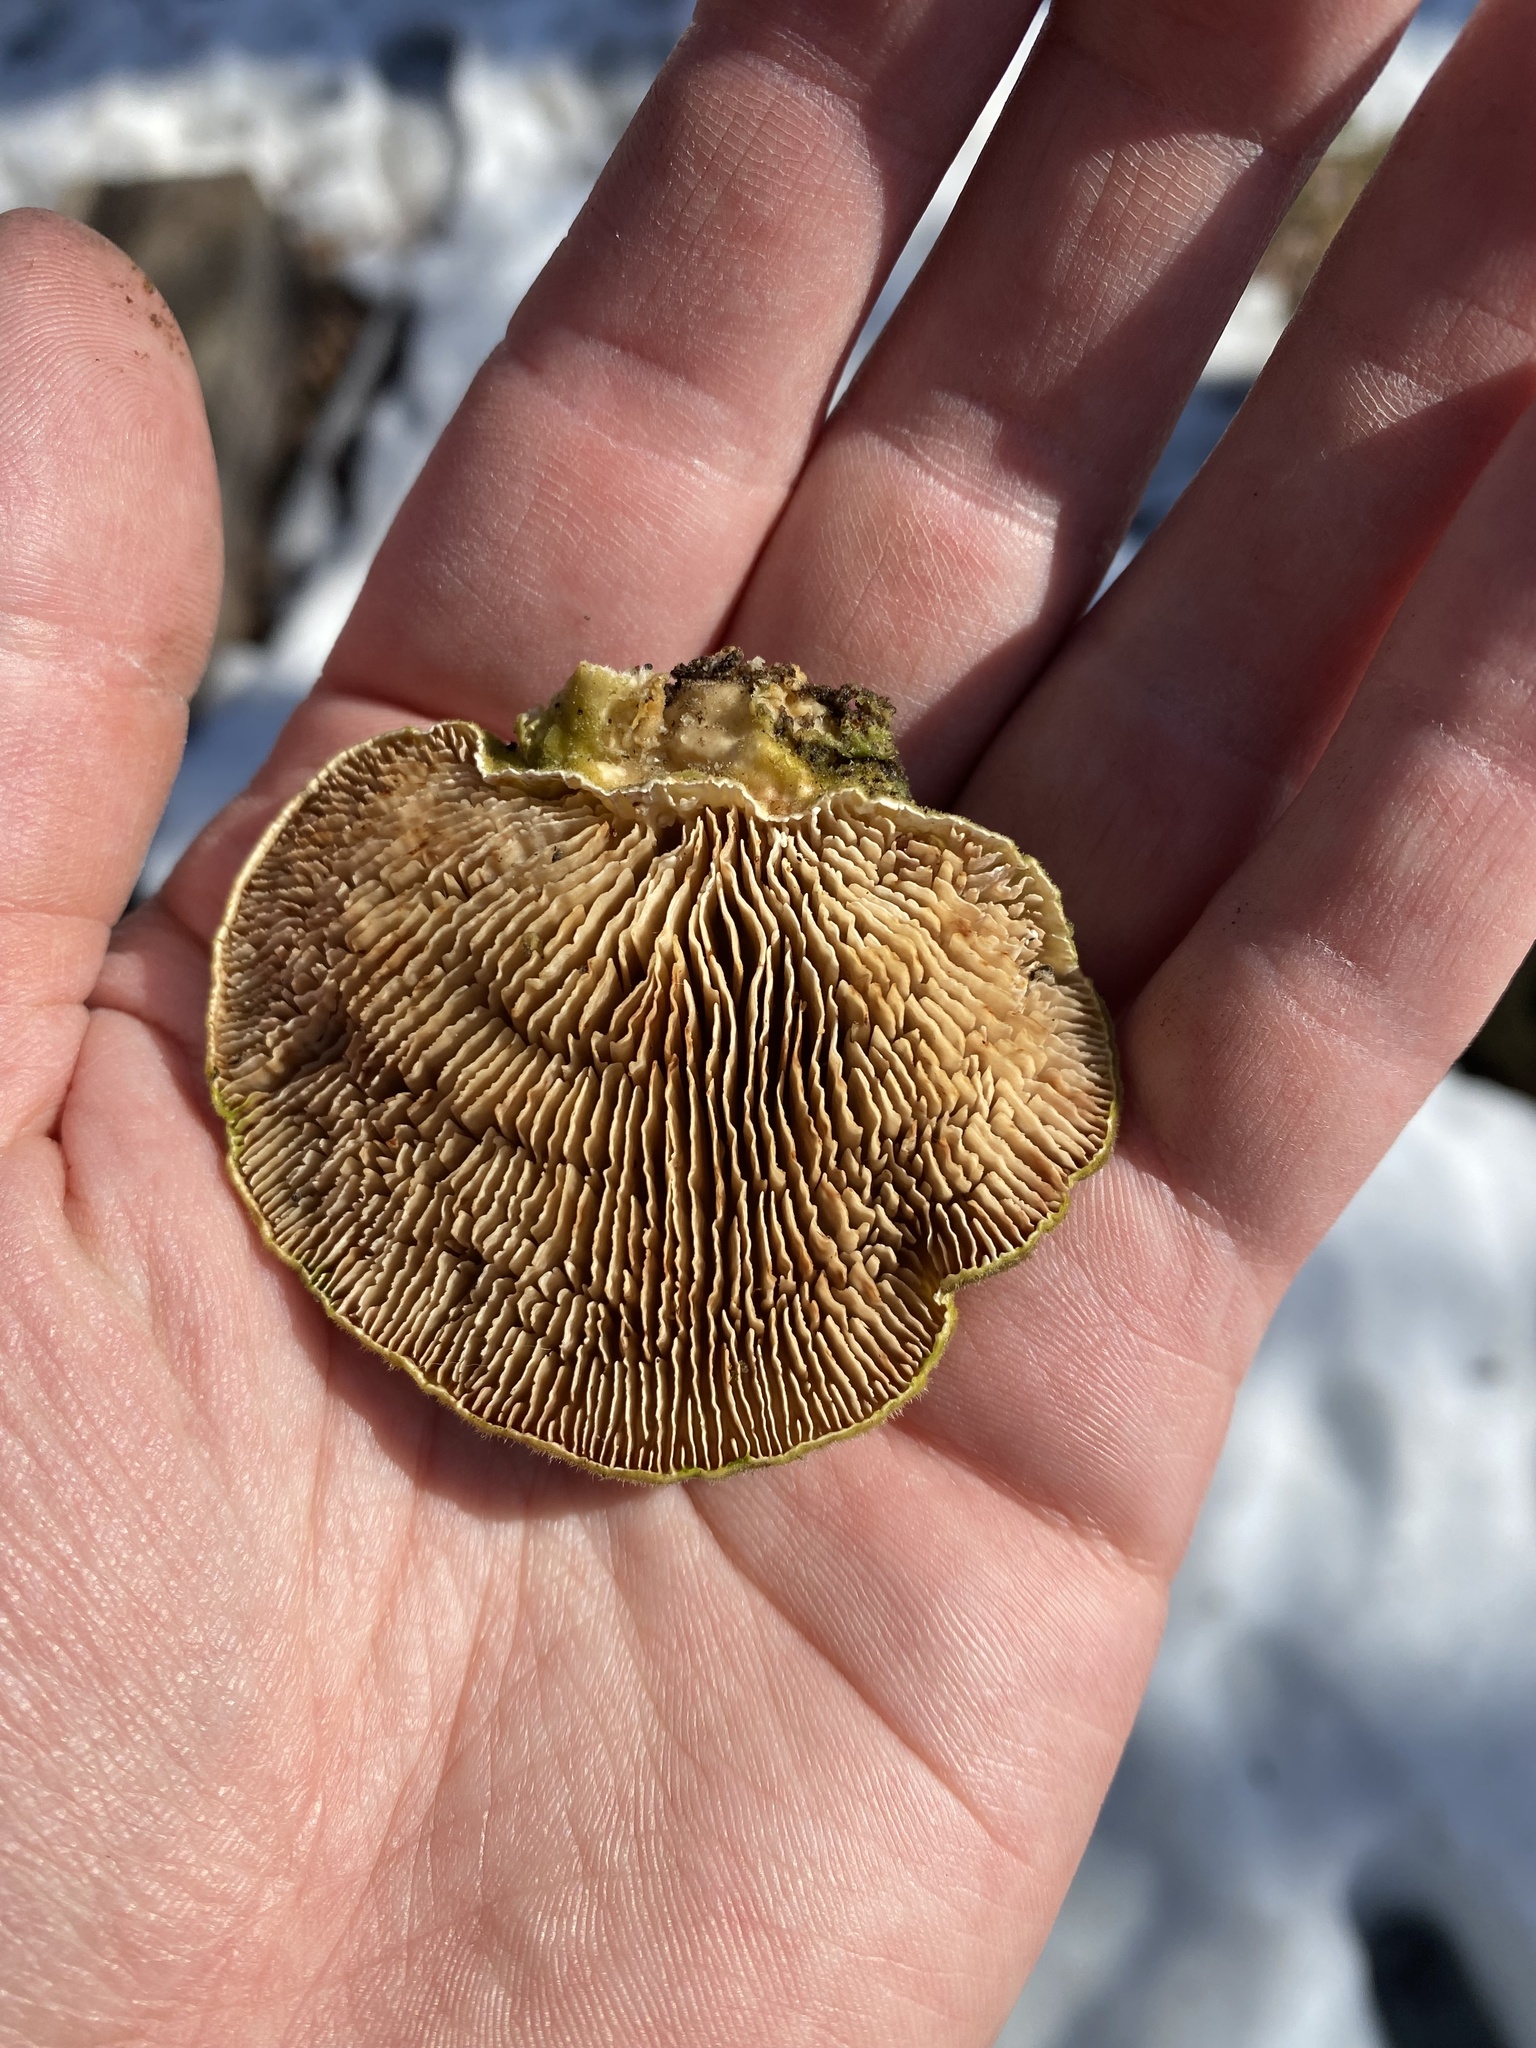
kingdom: Fungi
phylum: Basidiomycota
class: Agaricomycetes
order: Polyporales
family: Polyporaceae
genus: Lenzites
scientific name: Lenzites betulinus
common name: Birch mazegill
